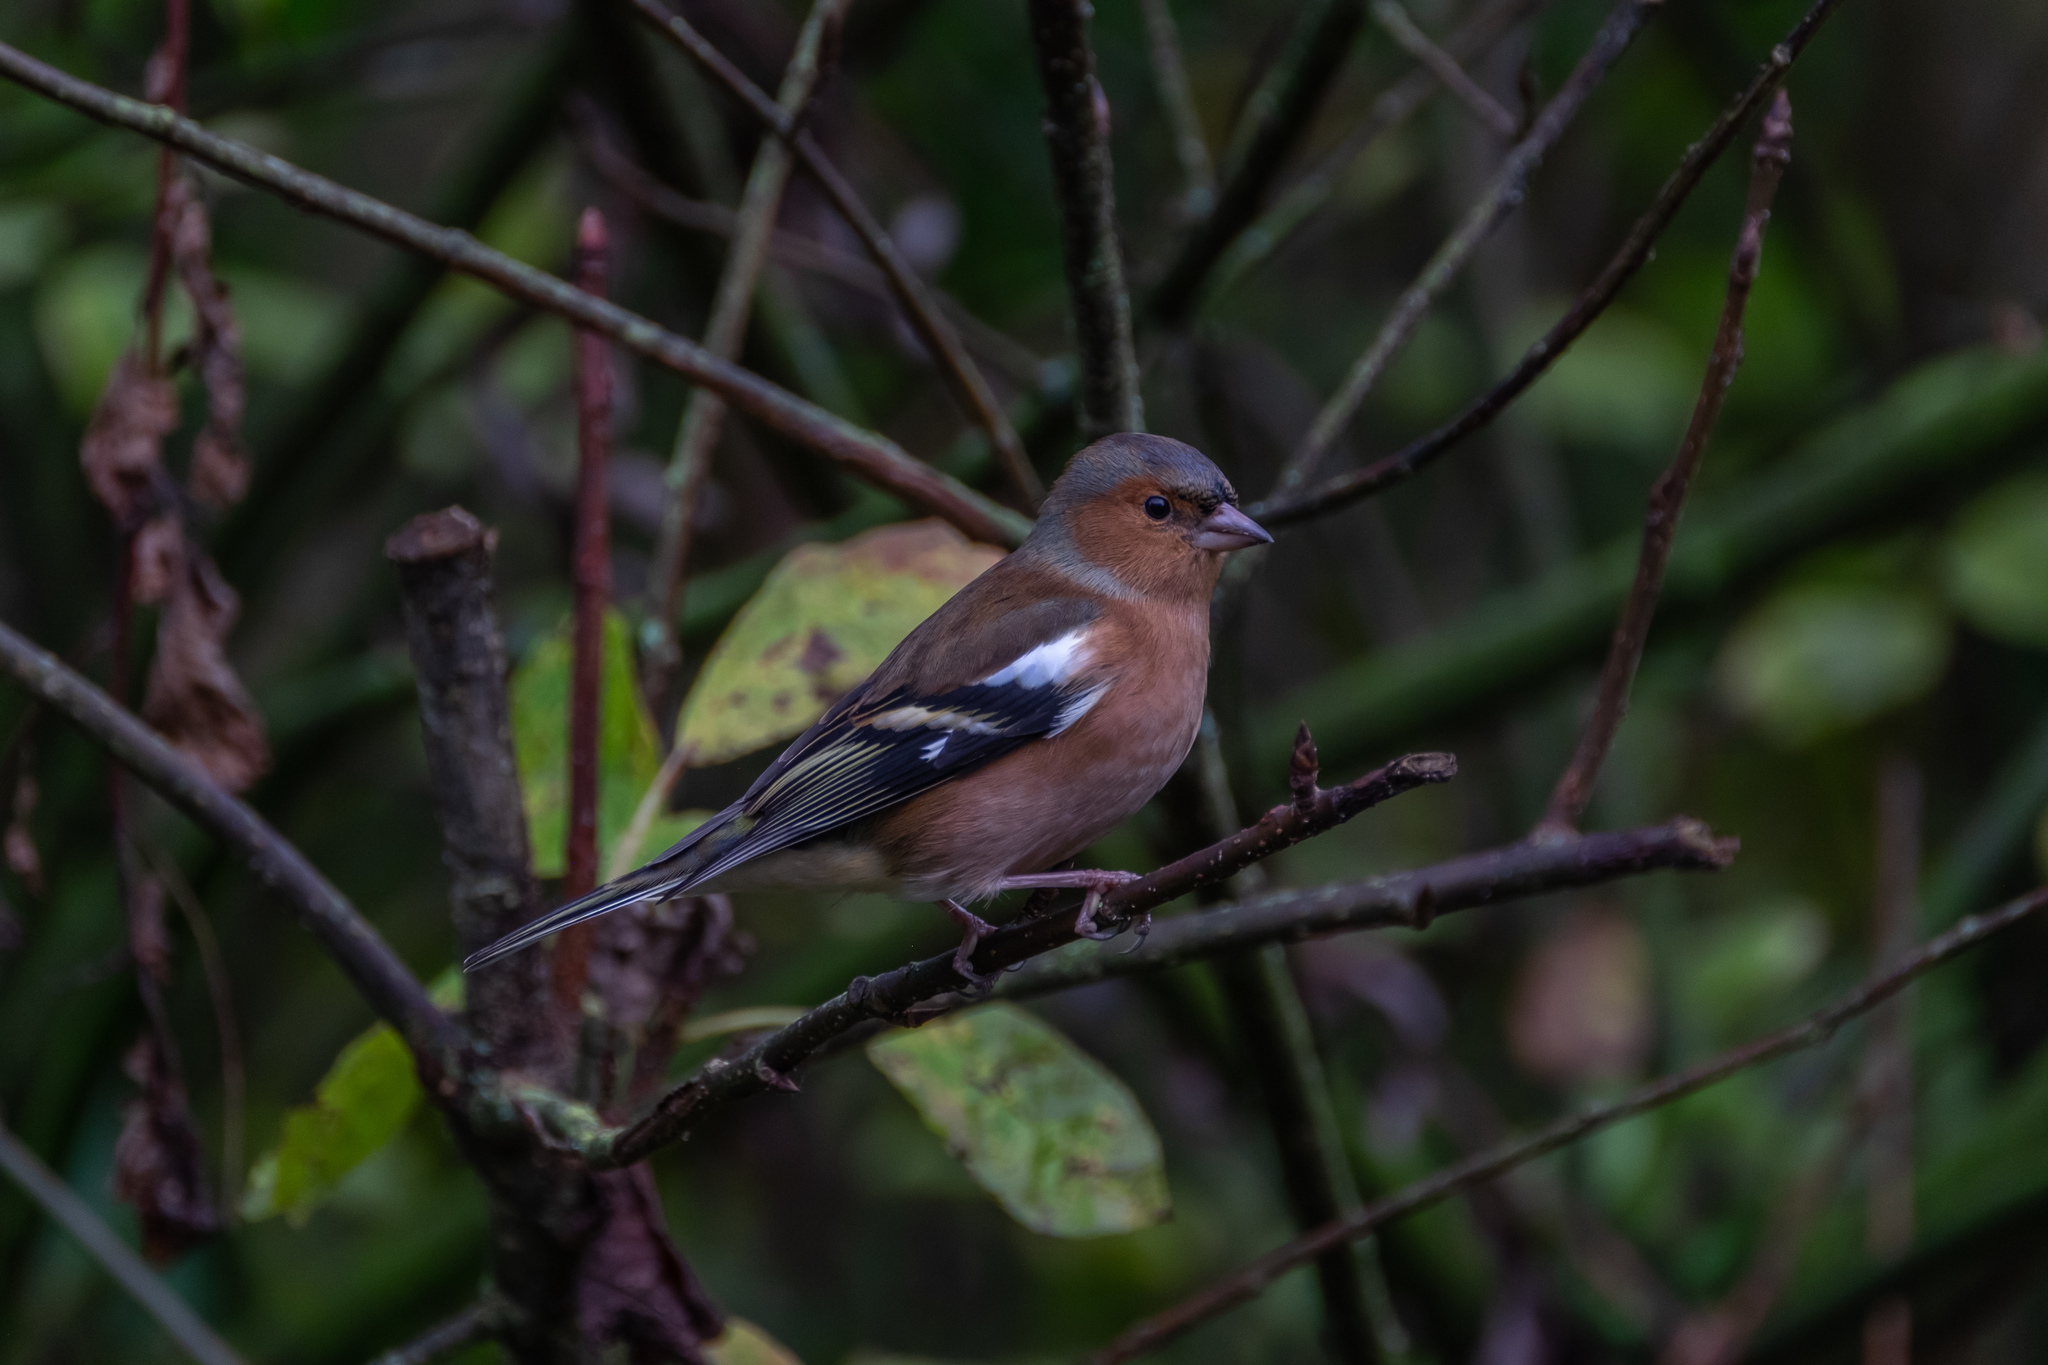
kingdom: Animalia
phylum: Chordata
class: Aves
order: Passeriformes
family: Fringillidae
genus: Fringilla
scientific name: Fringilla coelebs
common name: Common chaffinch
